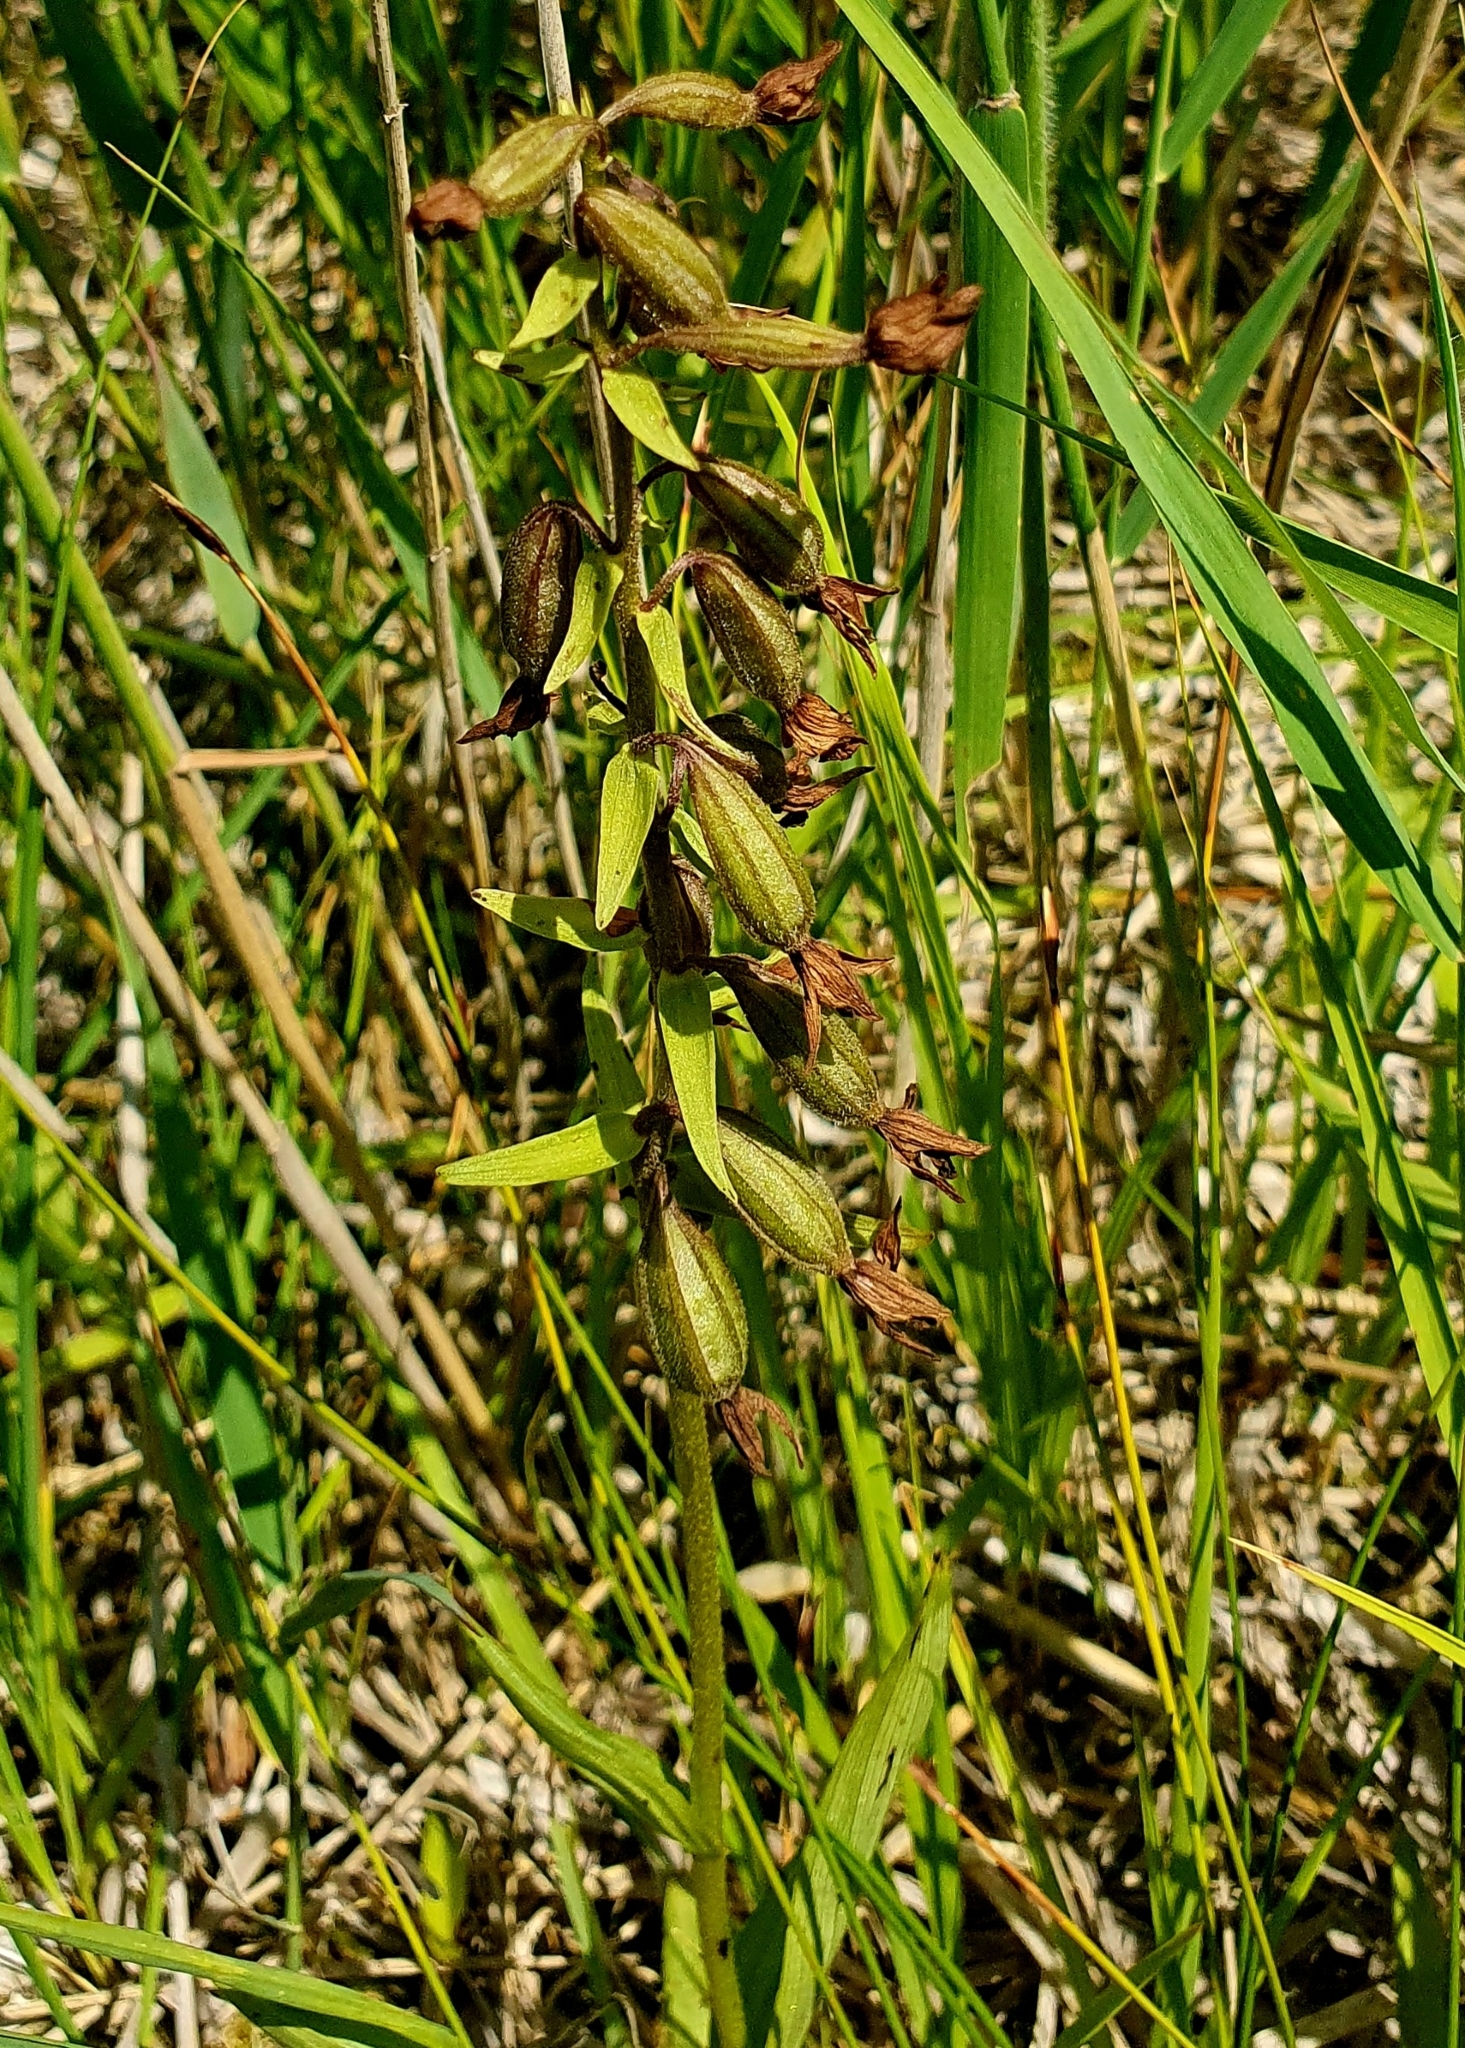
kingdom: Plantae
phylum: Tracheophyta
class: Liliopsida
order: Asparagales
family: Orchidaceae
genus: Epipactis
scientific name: Epipactis palustris
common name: Marsh helleborine
